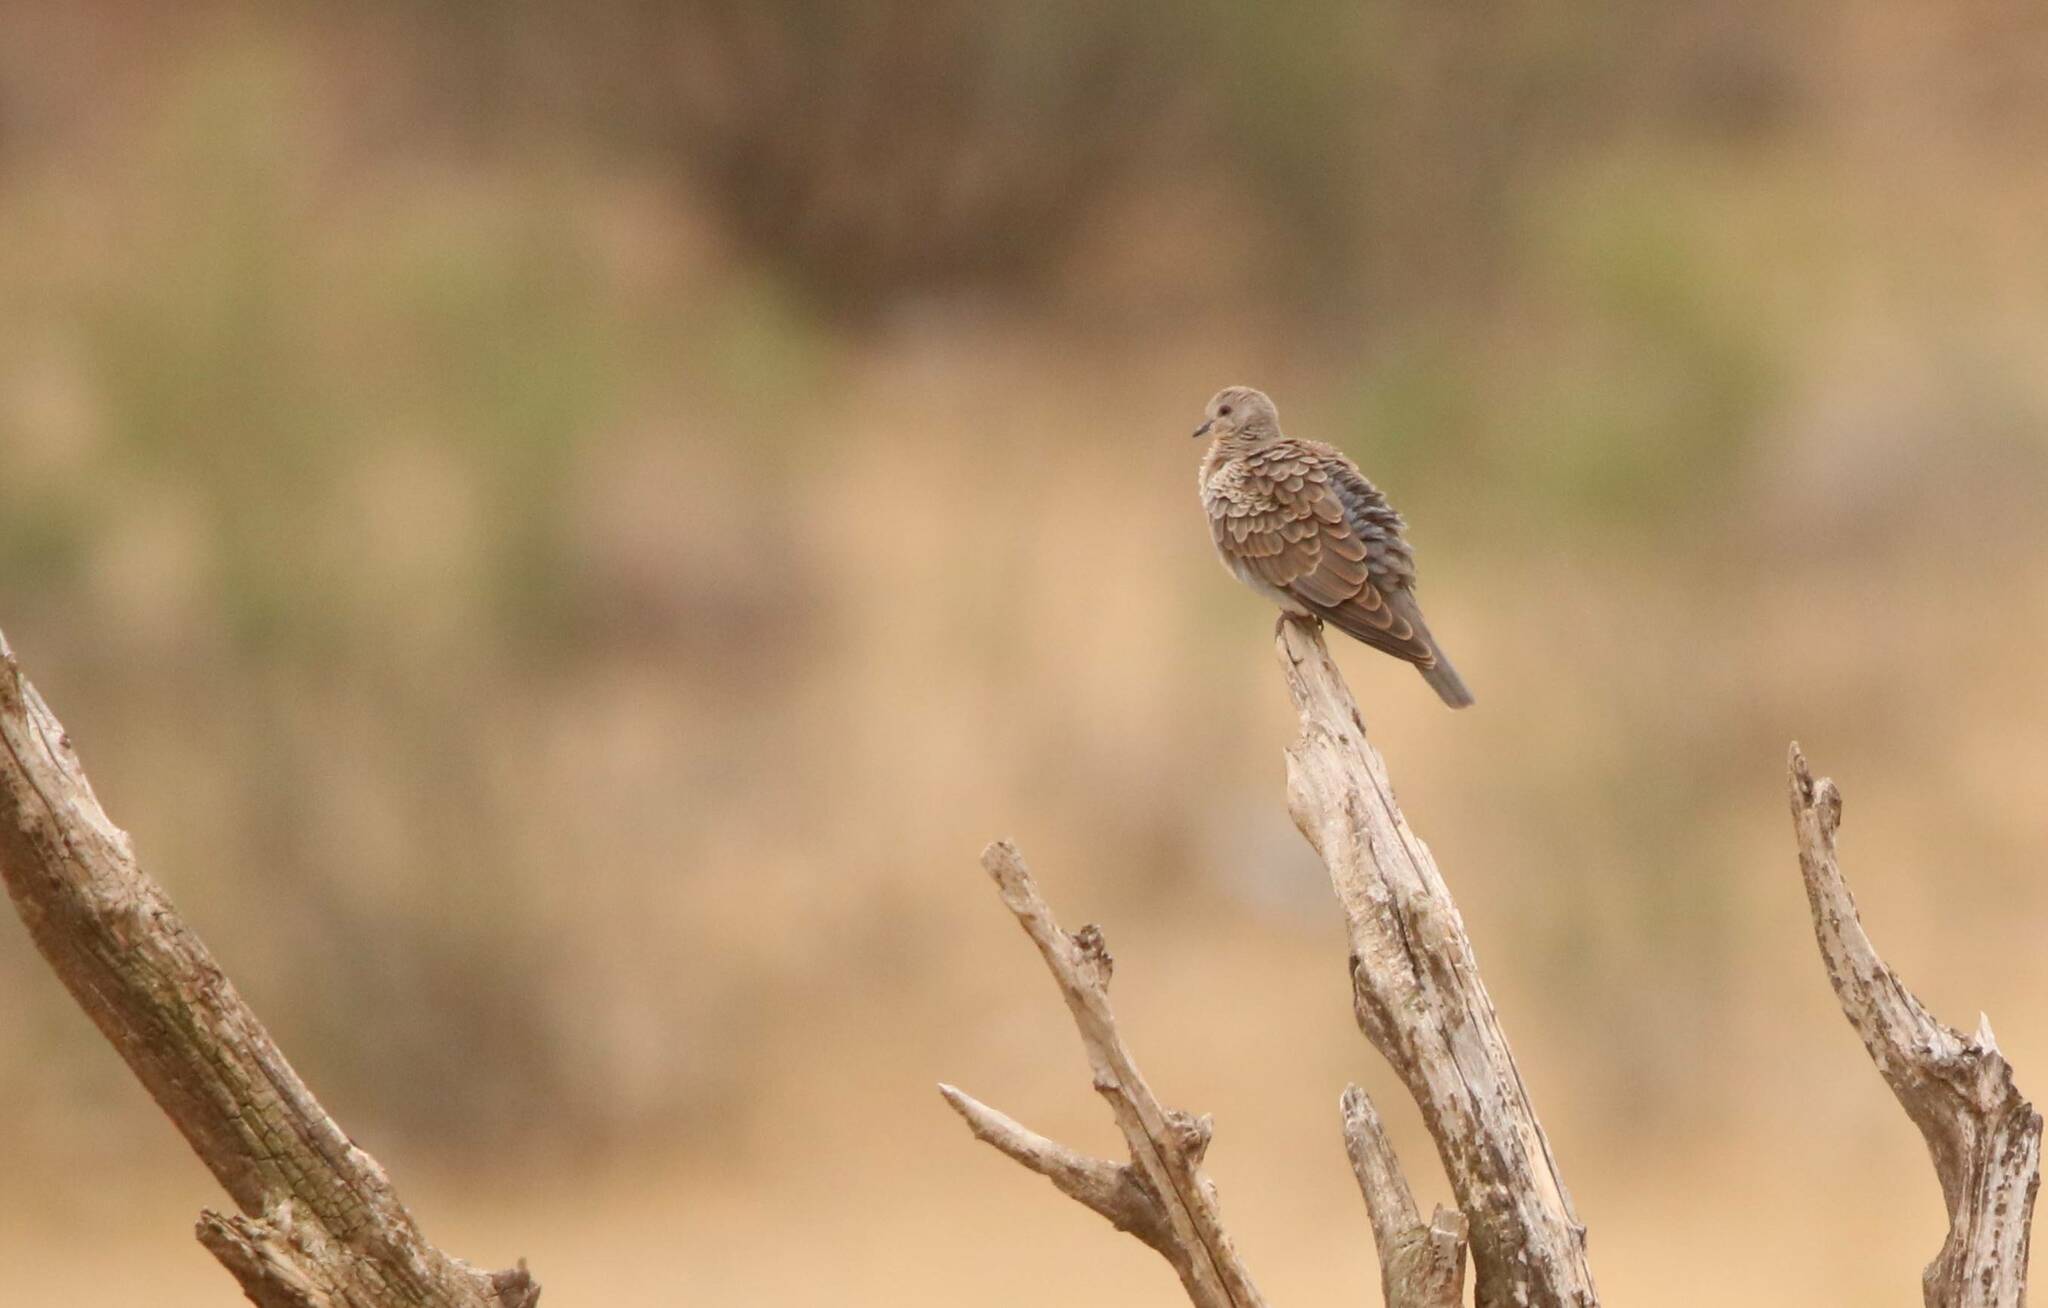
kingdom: Animalia
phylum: Chordata
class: Aves
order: Columbiformes
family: Columbidae
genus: Streptopelia
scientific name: Streptopelia turtur
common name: European turtle dove
